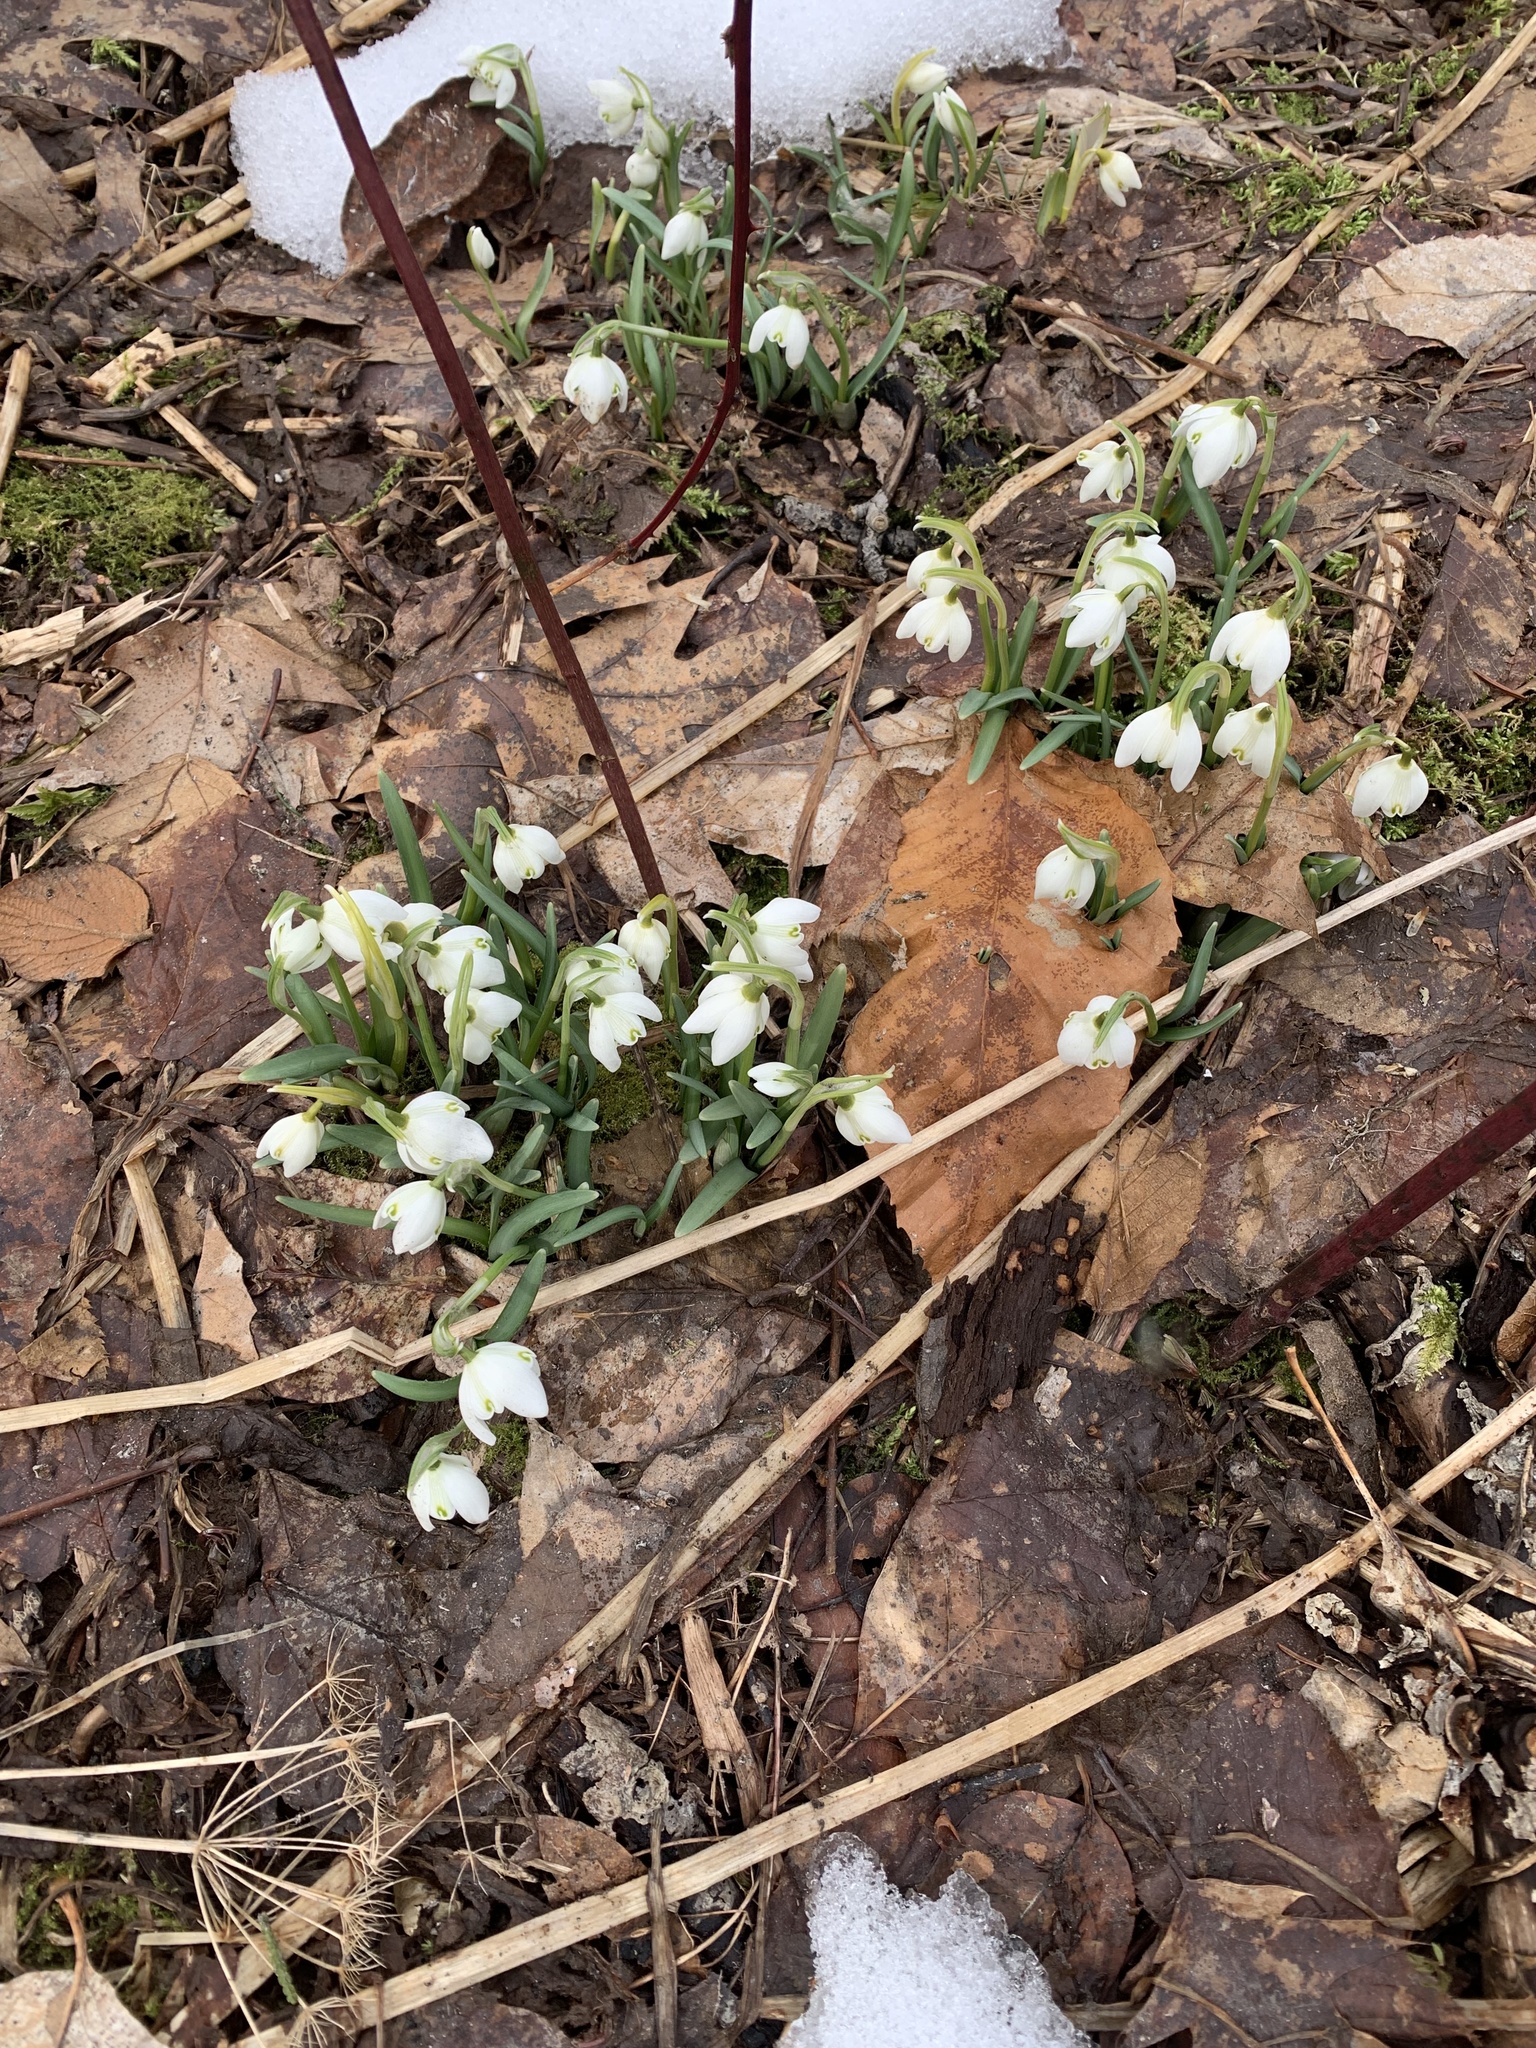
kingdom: Plantae
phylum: Tracheophyta
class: Liliopsida
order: Asparagales
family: Amaryllidaceae
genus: Galanthus
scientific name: Galanthus nivalis
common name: Snowdrop
